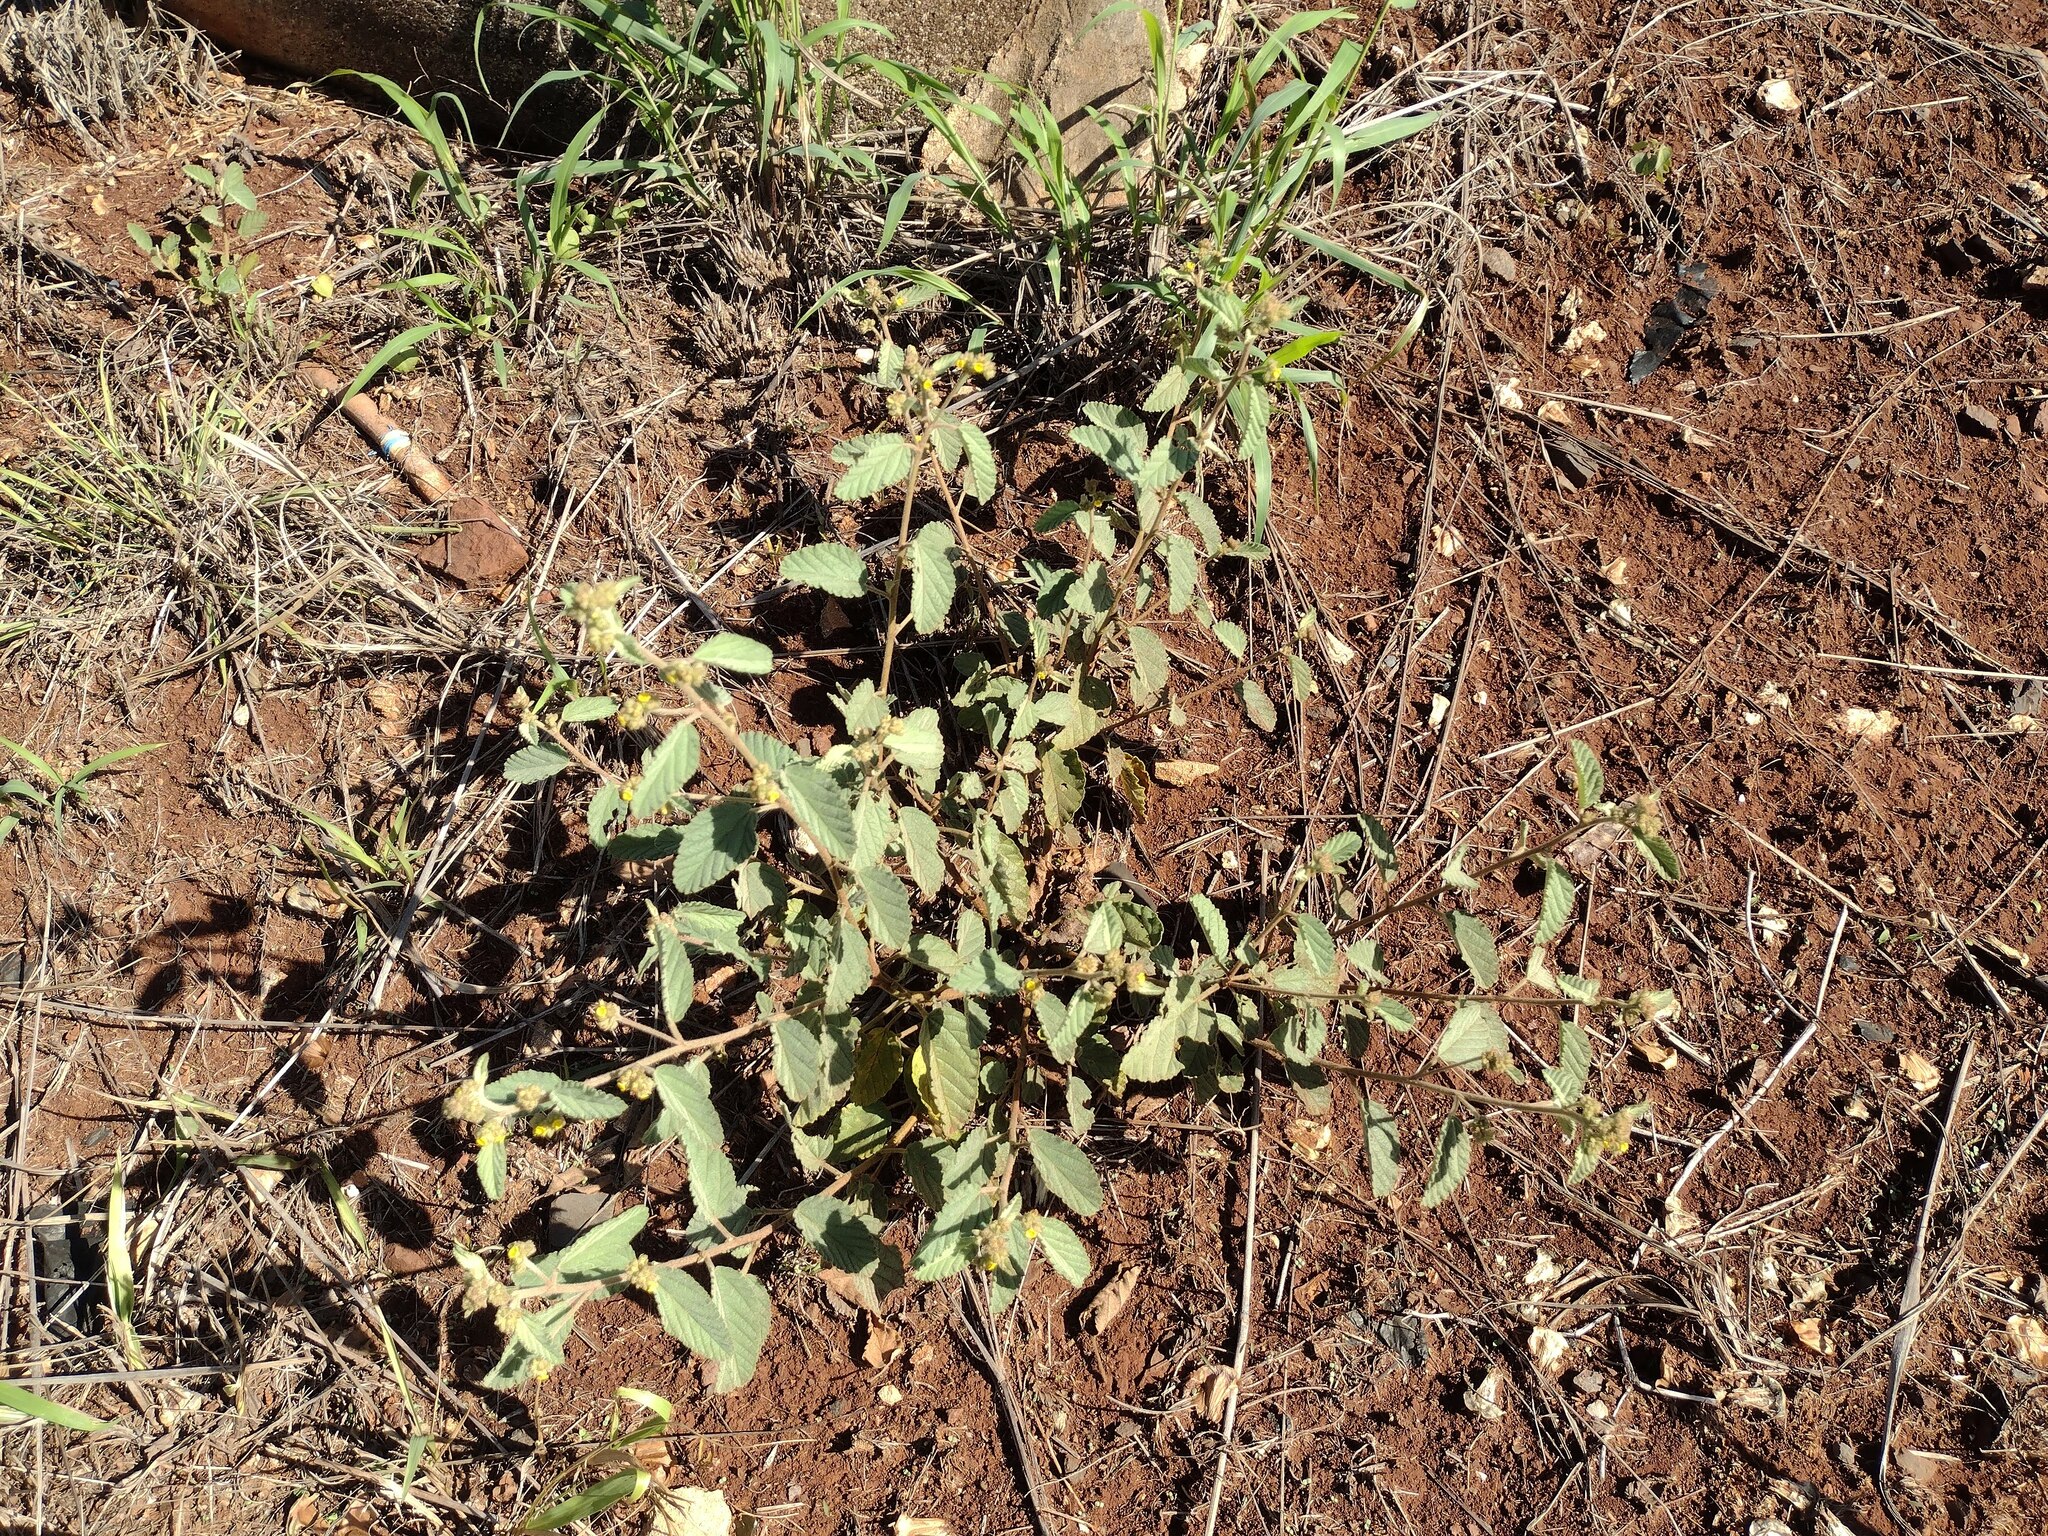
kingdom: Plantae
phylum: Tracheophyta
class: Magnoliopsida
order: Malvales
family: Malvaceae
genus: Waltheria
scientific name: Waltheria indica
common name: Leather-coat
